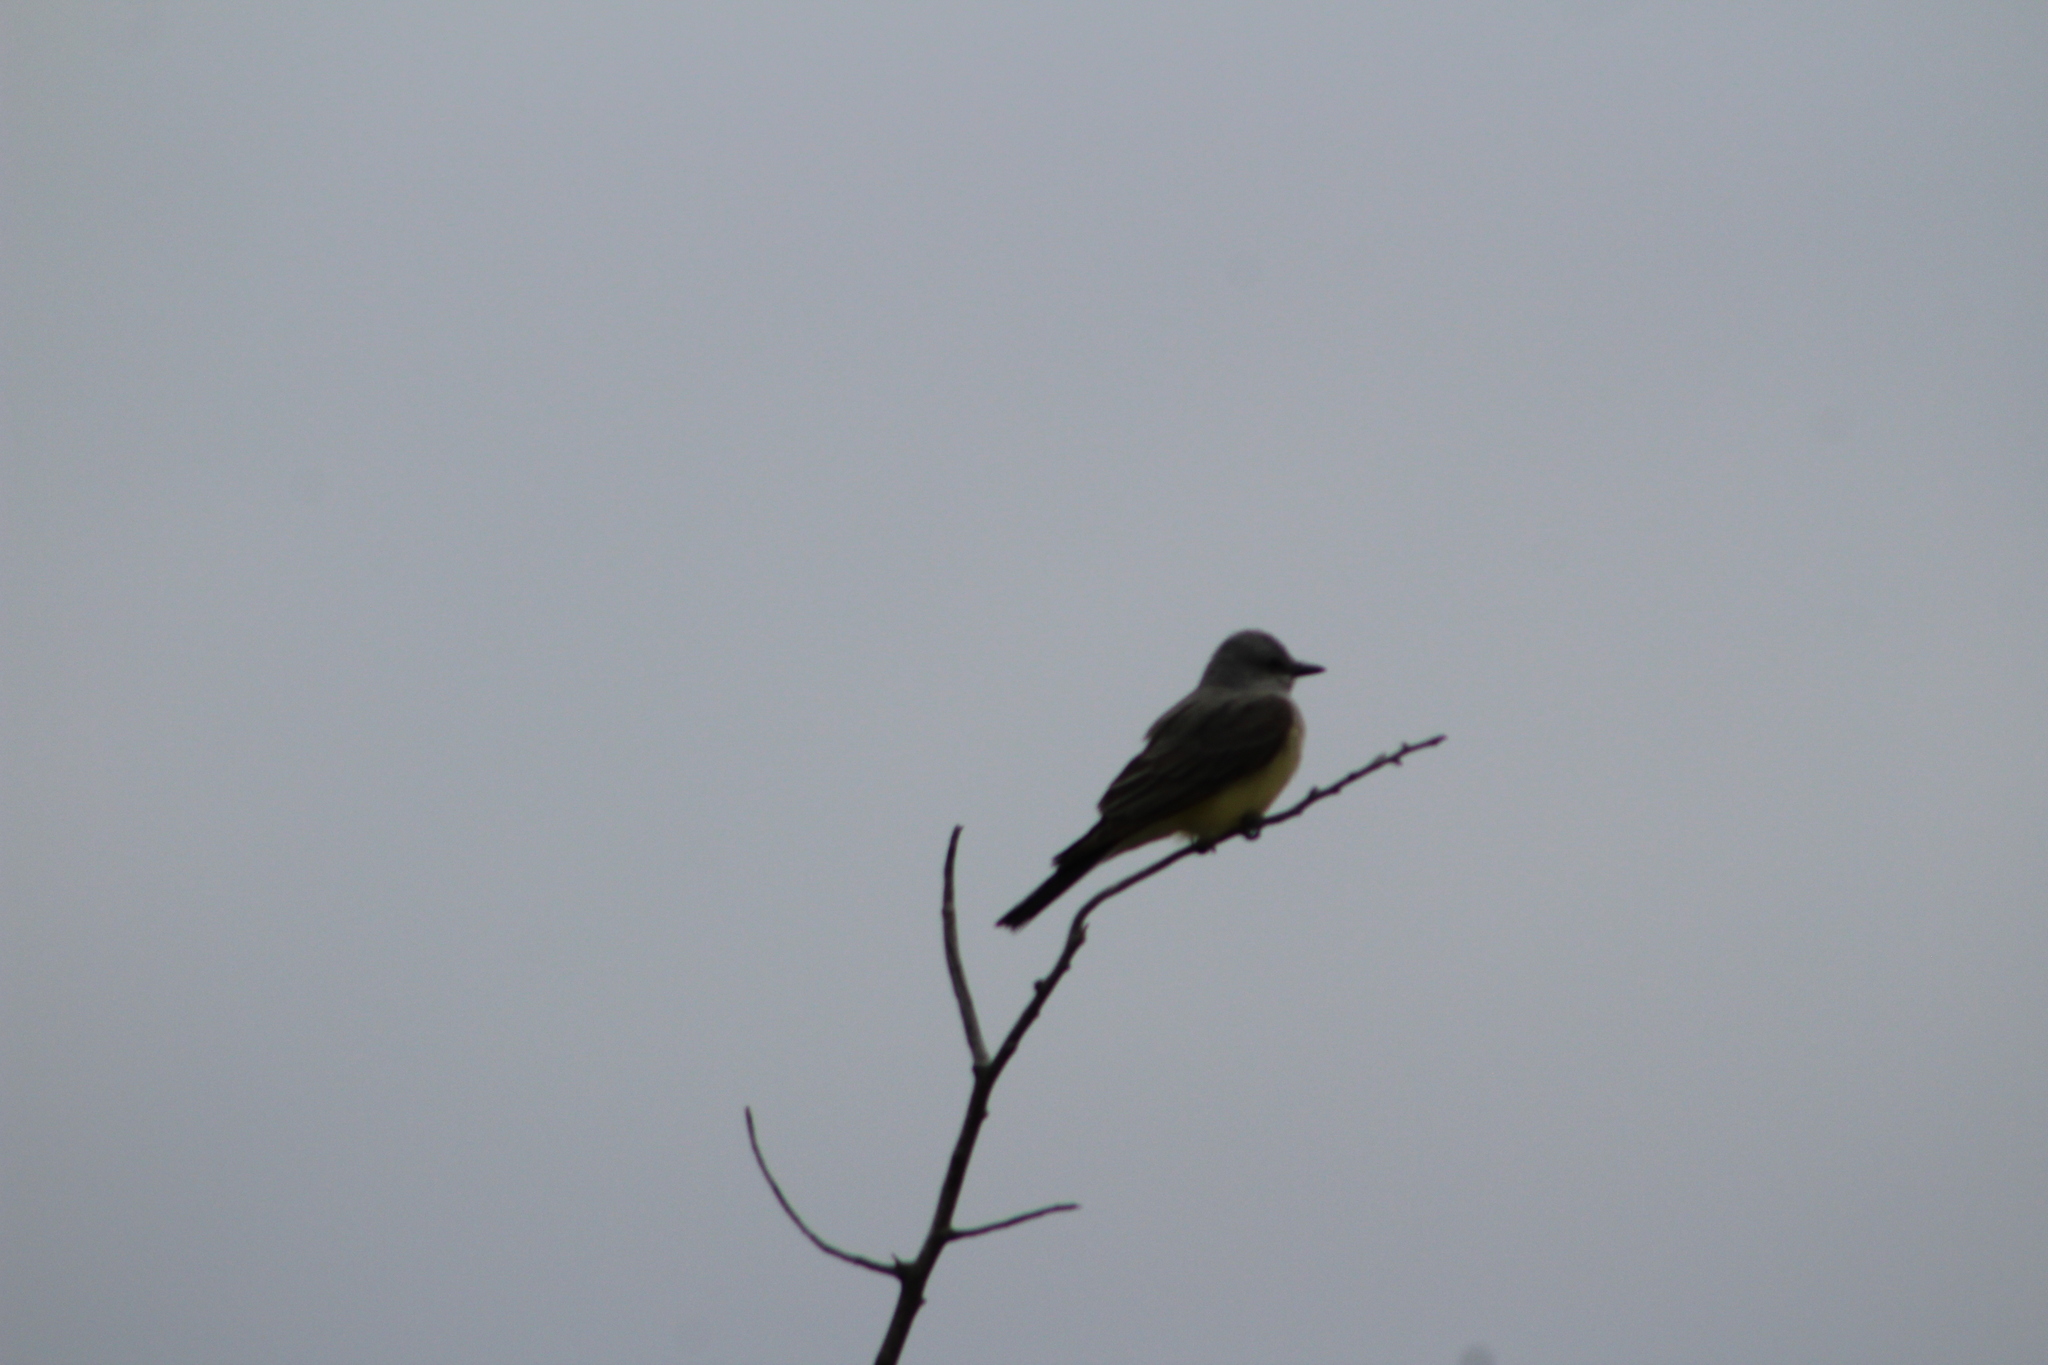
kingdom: Animalia
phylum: Chordata
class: Aves
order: Passeriformes
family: Tyrannidae
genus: Tyrannus
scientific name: Tyrannus verticalis
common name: Western kingbird
